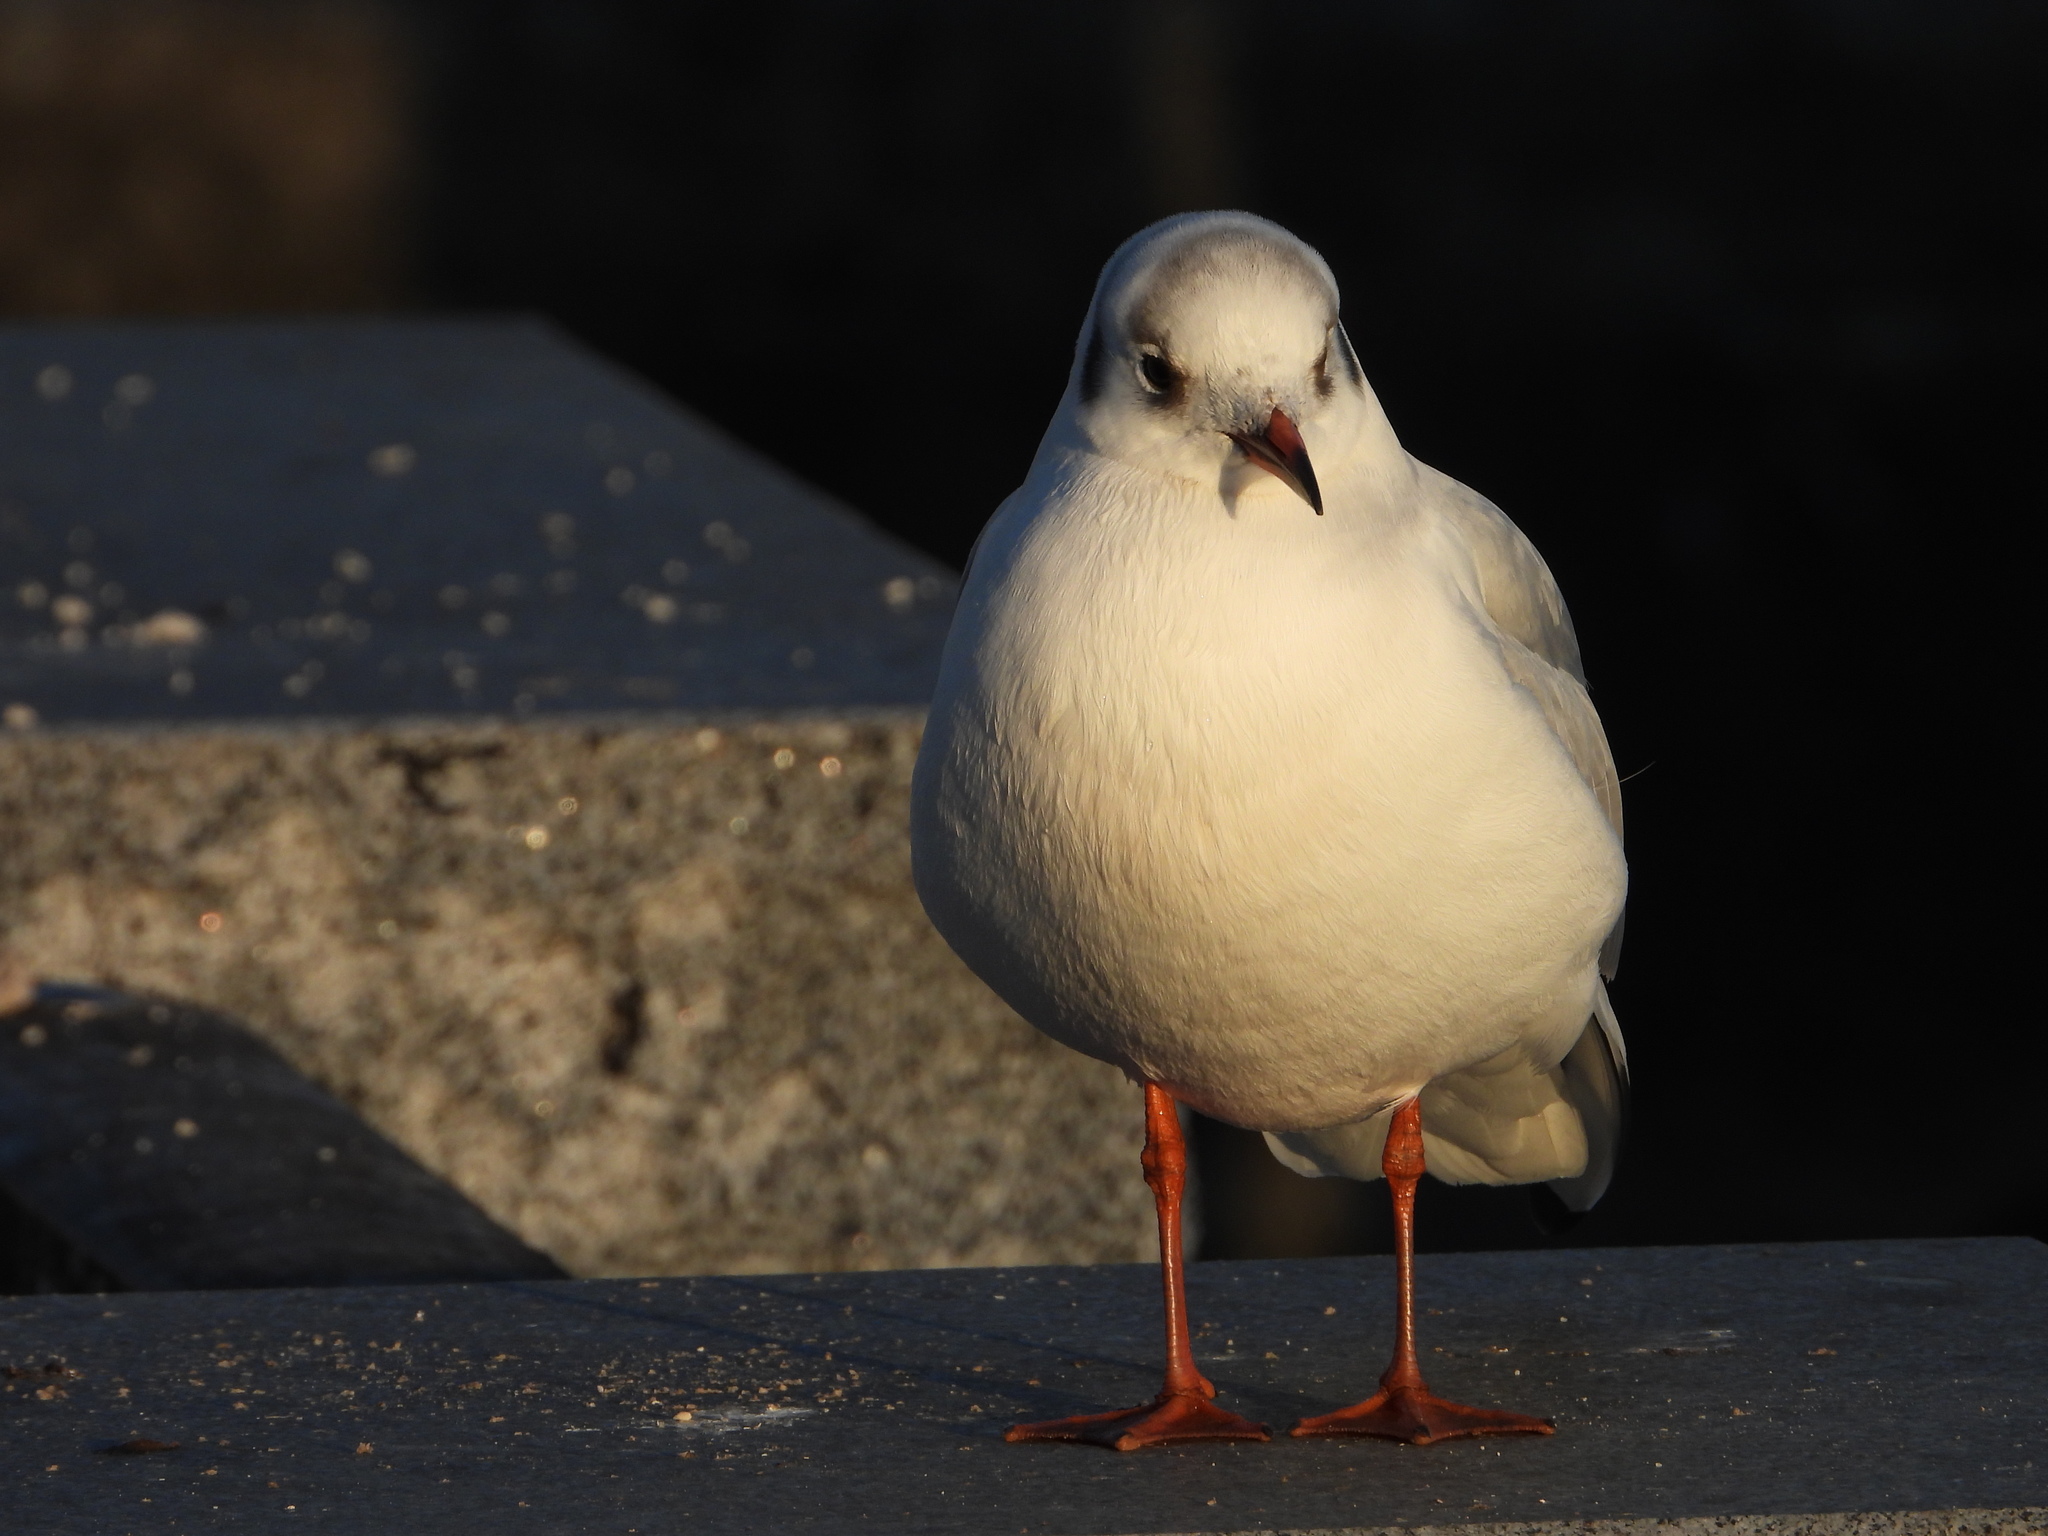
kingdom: Animalia
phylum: Chordata
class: Aves
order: Charadriiformes
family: Laridae
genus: Chroicocephalus
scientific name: Chroicocephalus ridibundus
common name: Black-headed gull
